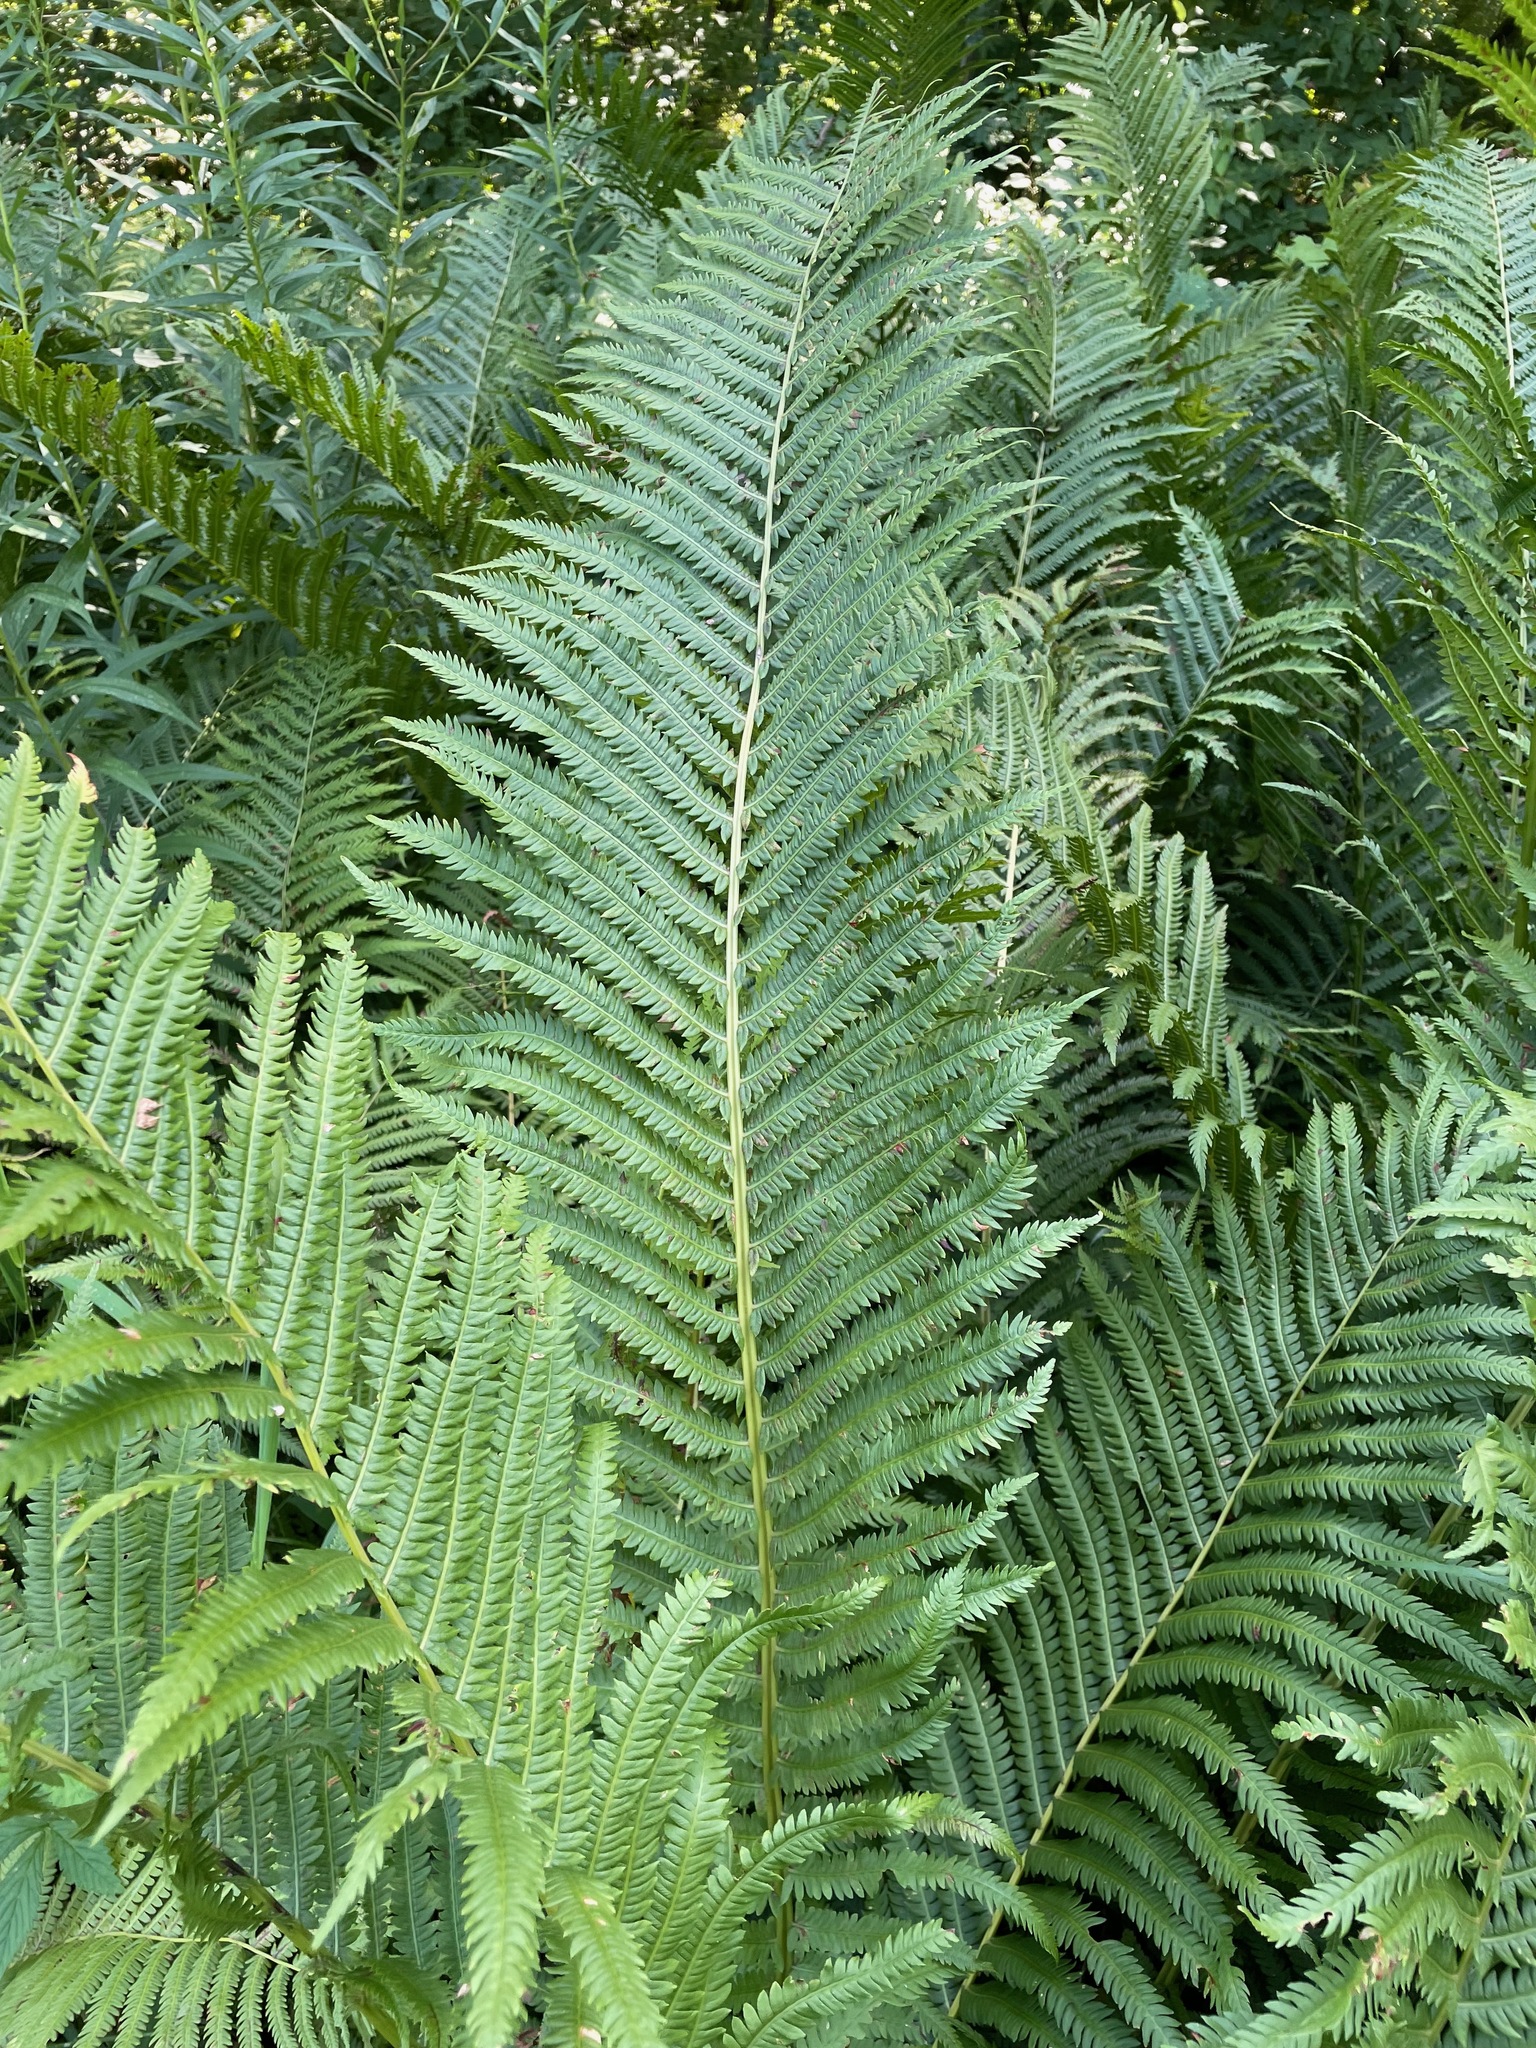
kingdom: Plantae
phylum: Tracheophyta
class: Polypodiopsida
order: Polypodiales
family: Onocleaceae
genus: Matteuccia
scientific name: Matteuccia struthiopteris
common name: Ostrich fern
